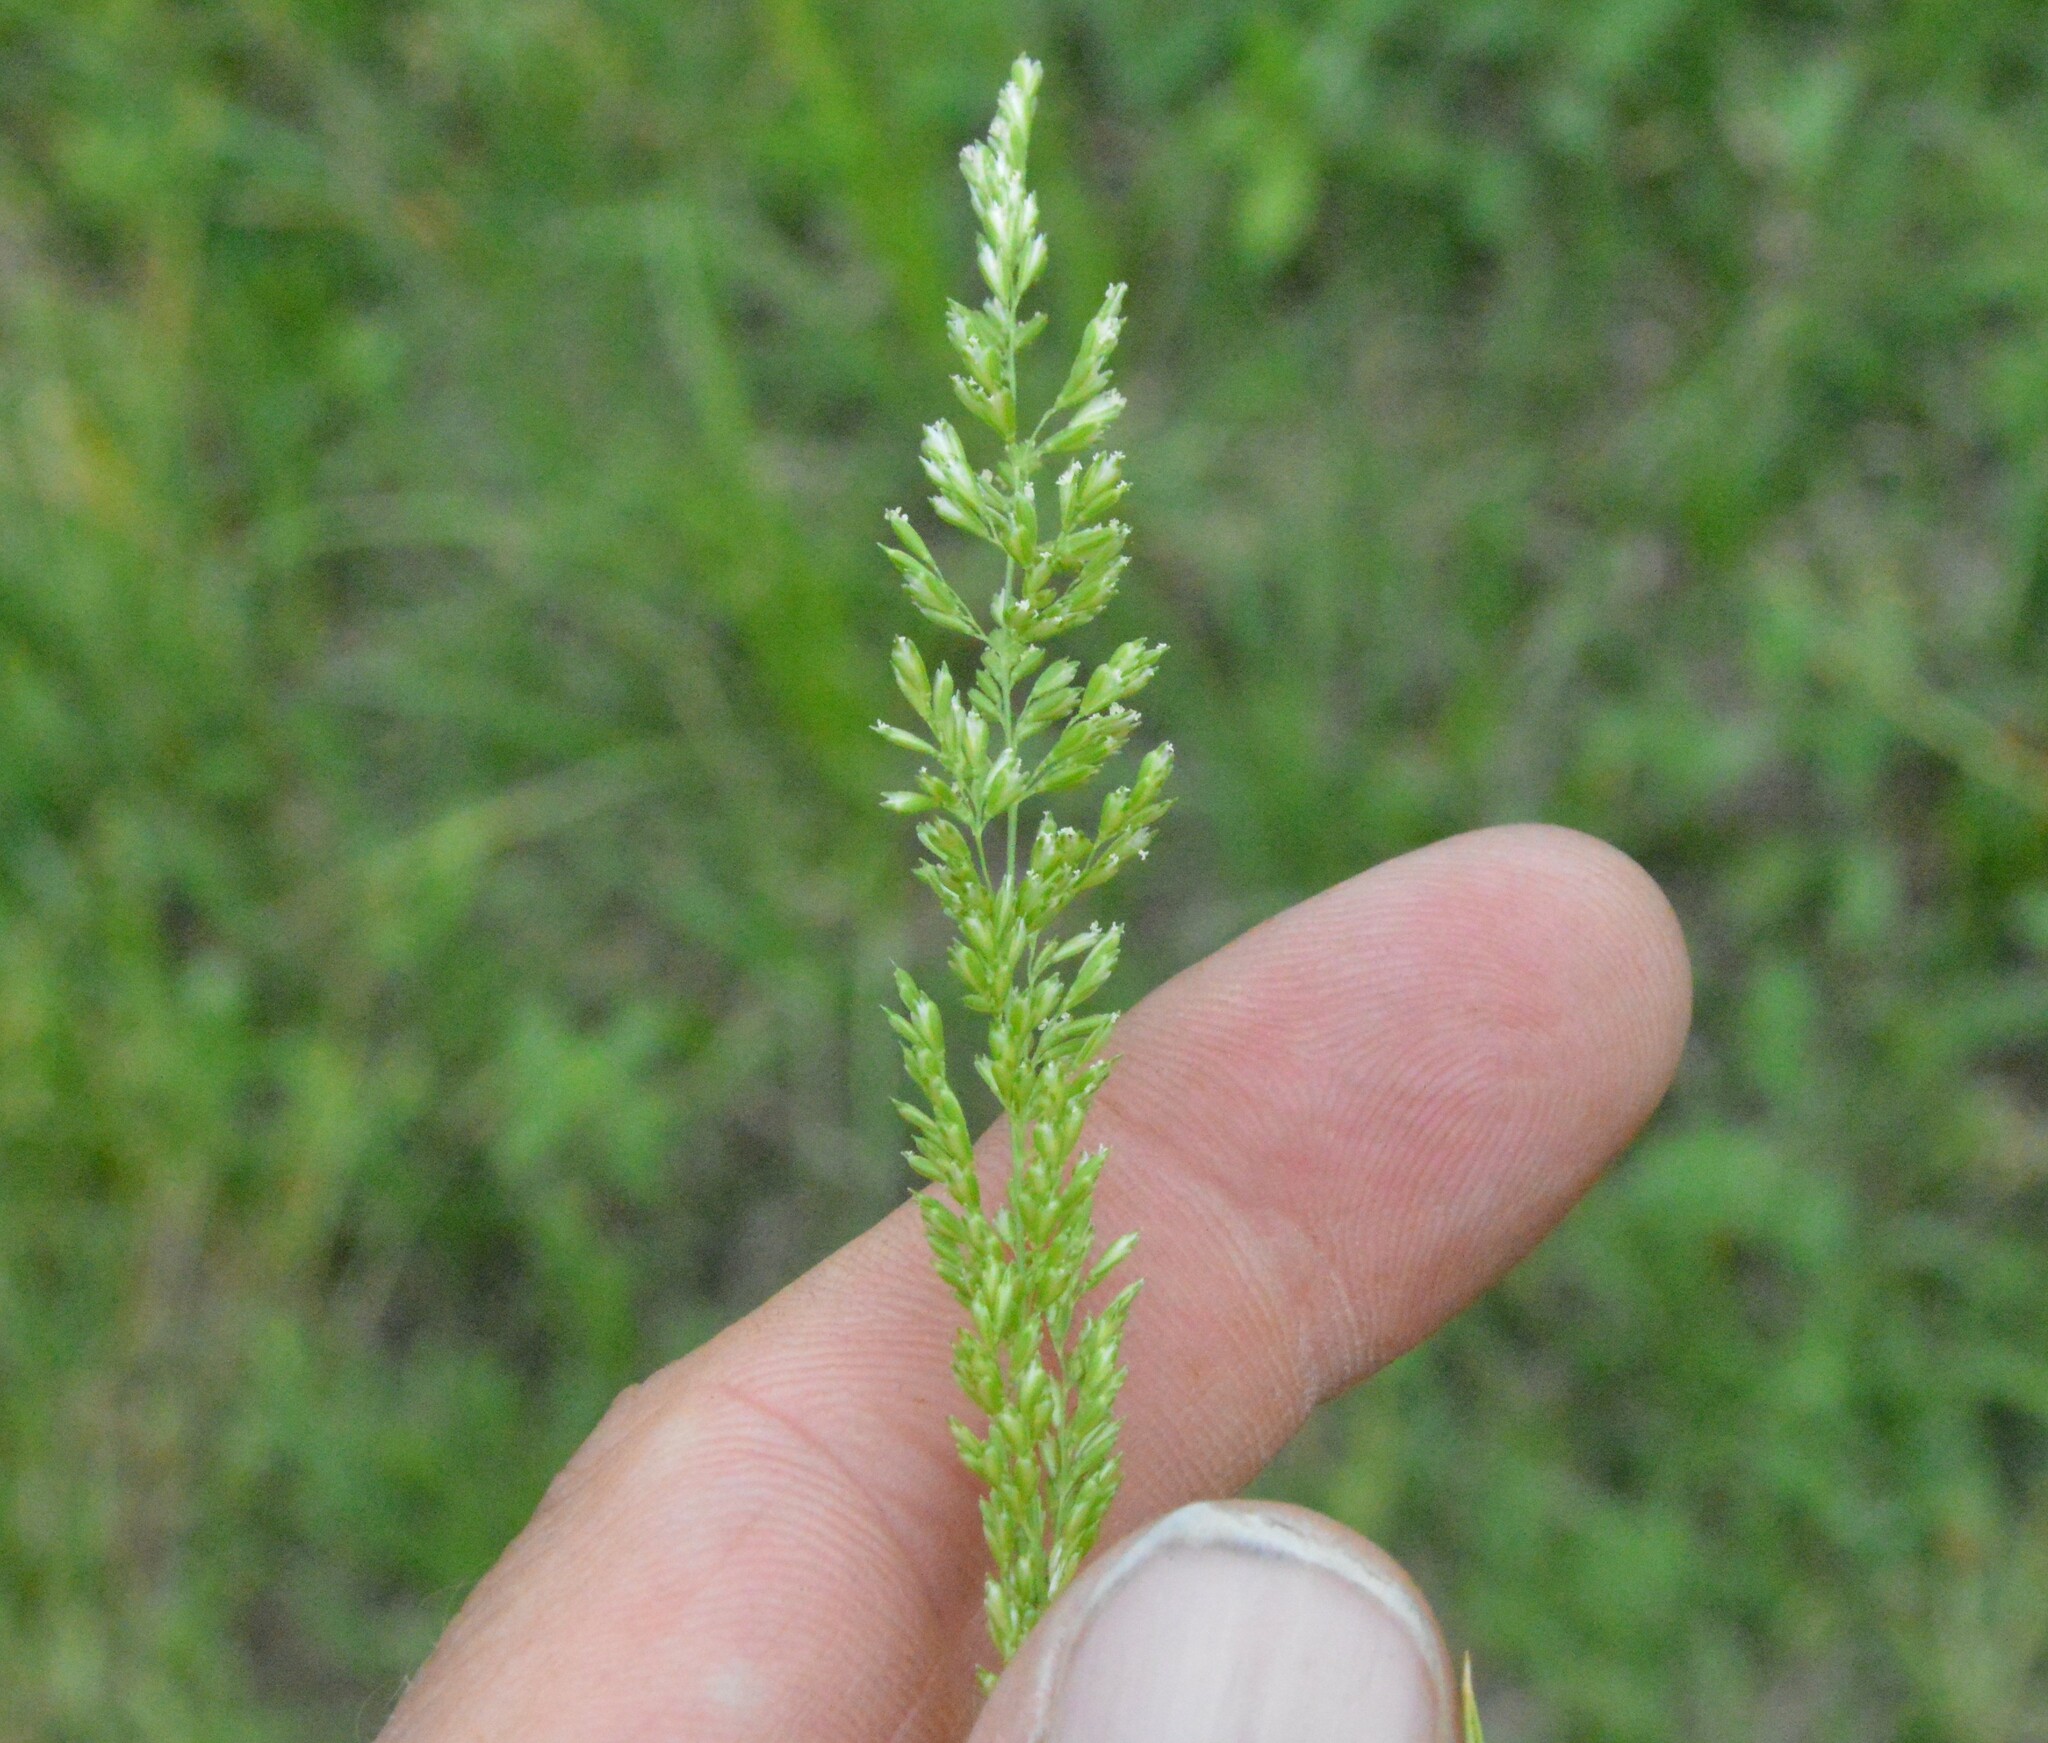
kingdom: Plantae
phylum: Tracheophyta
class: Liliopsida
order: Poales
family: Poaceae
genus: Sphenopholis
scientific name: Sphenopholis obtusata
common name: Prairie grass
